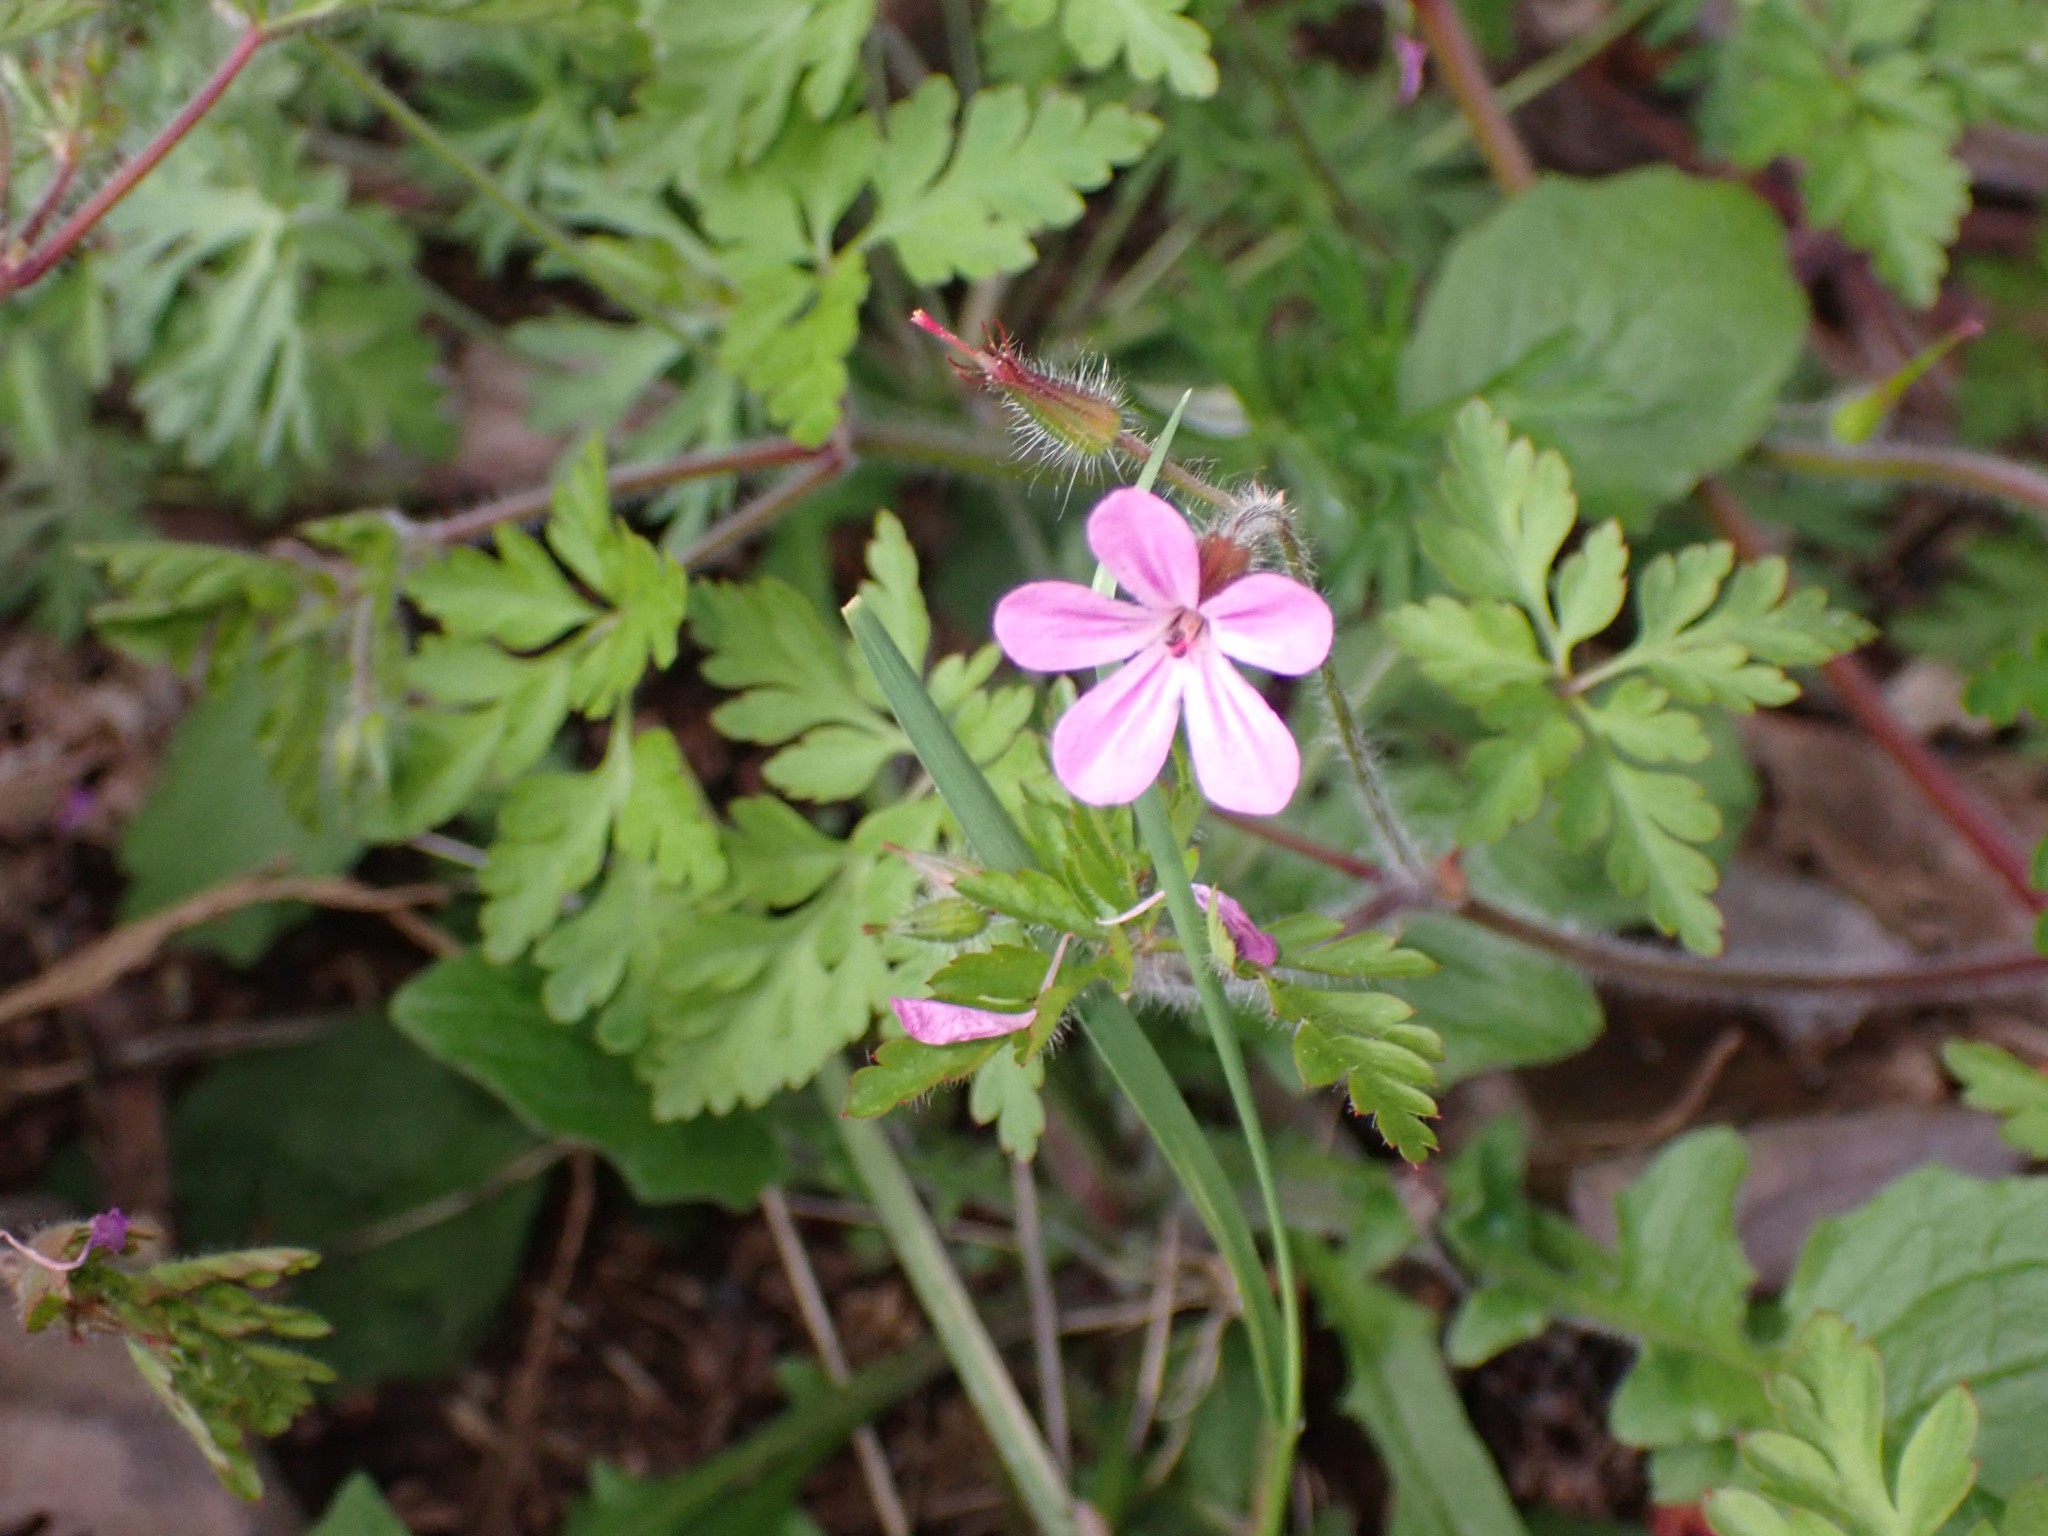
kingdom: Plantae
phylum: Tracheophyta
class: Magnoliopsida
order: Geraniales
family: Geraniaceae
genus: Geranium
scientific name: Geranium robertianum
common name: Herb-robert
